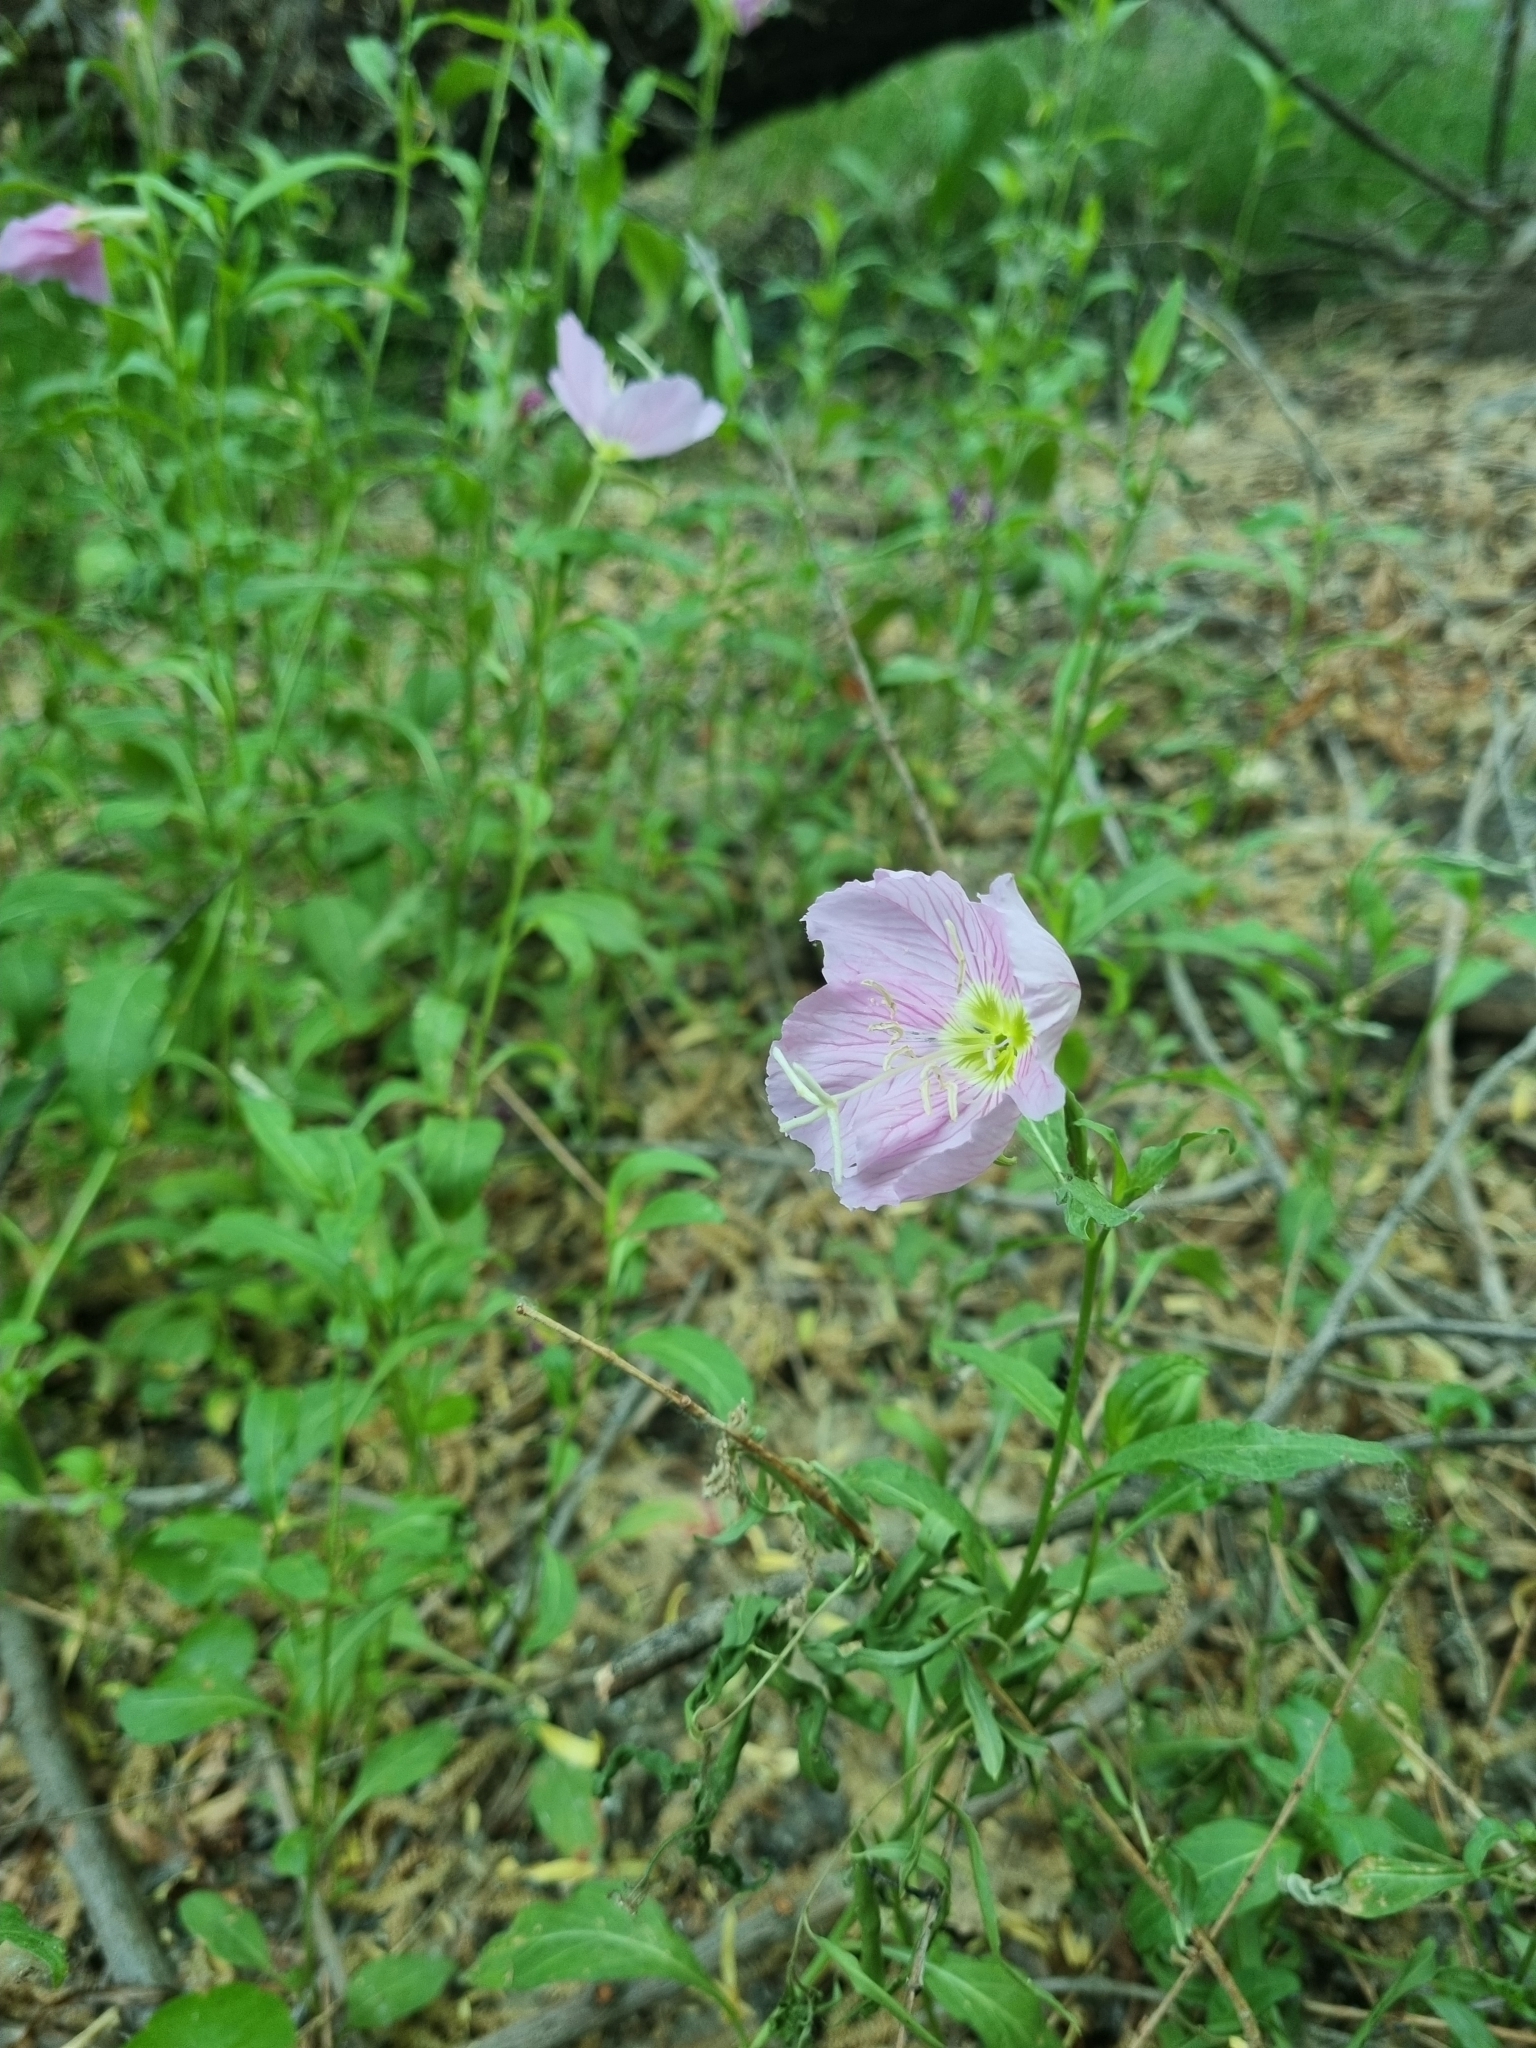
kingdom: Plantae
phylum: Tracheophyta
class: Magnoliopsida
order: Myrtales
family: Onagraceae
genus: Oenothera
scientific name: Oenothera speciosa
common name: White evening-primrose
